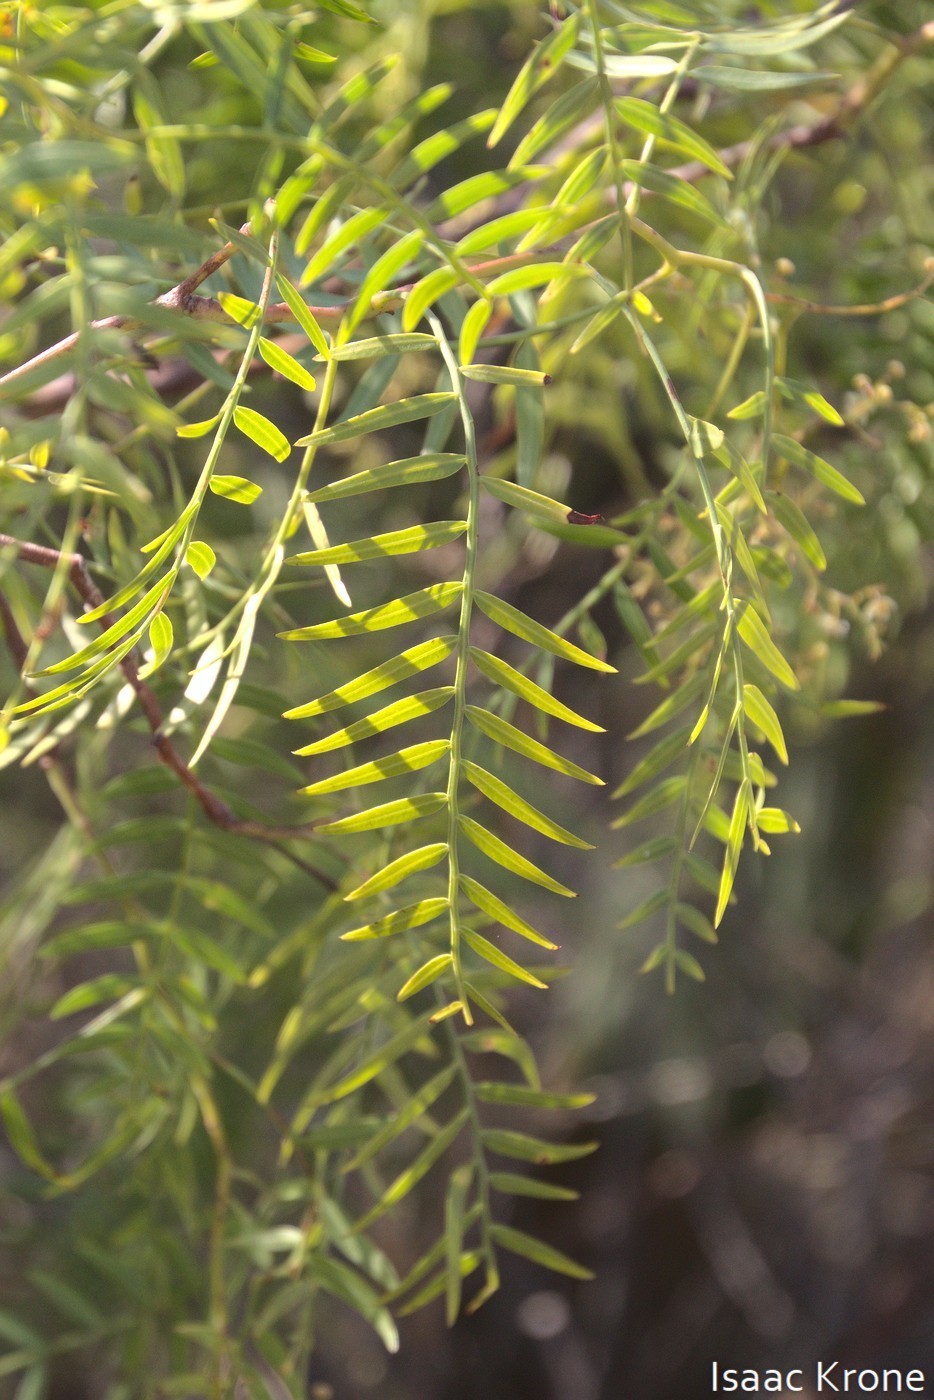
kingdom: Plantae
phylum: Tracheophyta
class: Magnoliopsida
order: Sapindales
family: Anacardiaceae
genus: Schinus
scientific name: Schinus molle
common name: Peruvian peppertree
